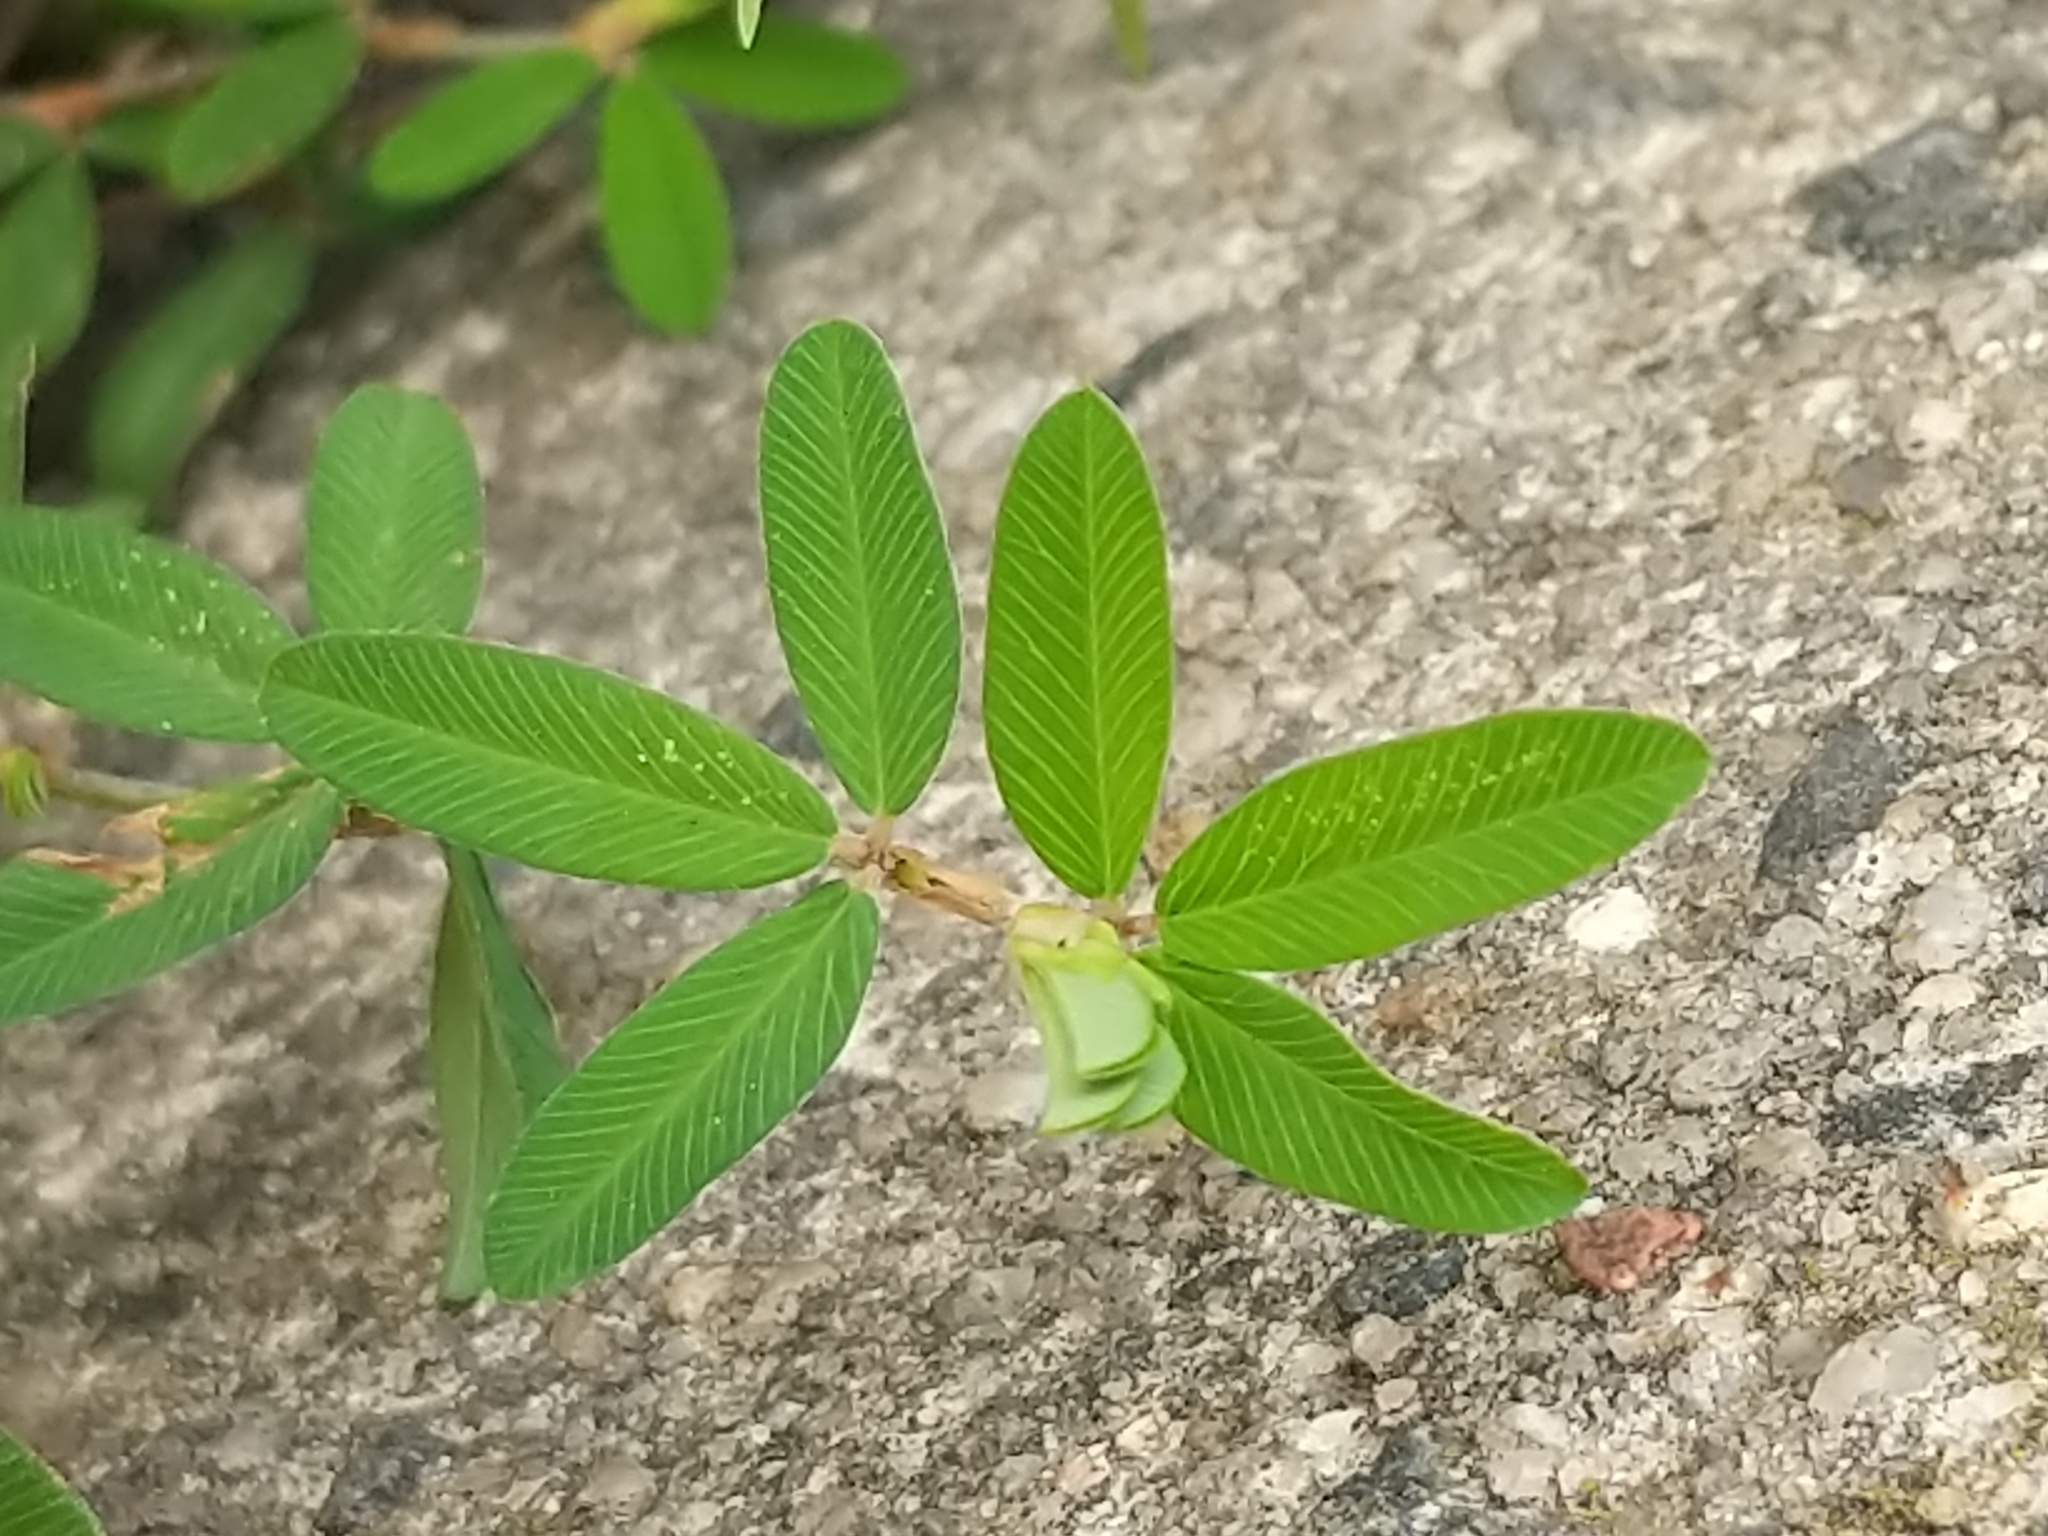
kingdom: Plantae
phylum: Tracheophyta
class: Magnoliopsida
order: Fabales
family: Fabaceae
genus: Kummerowia
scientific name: Kummerowia striata
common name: Japanese clover
